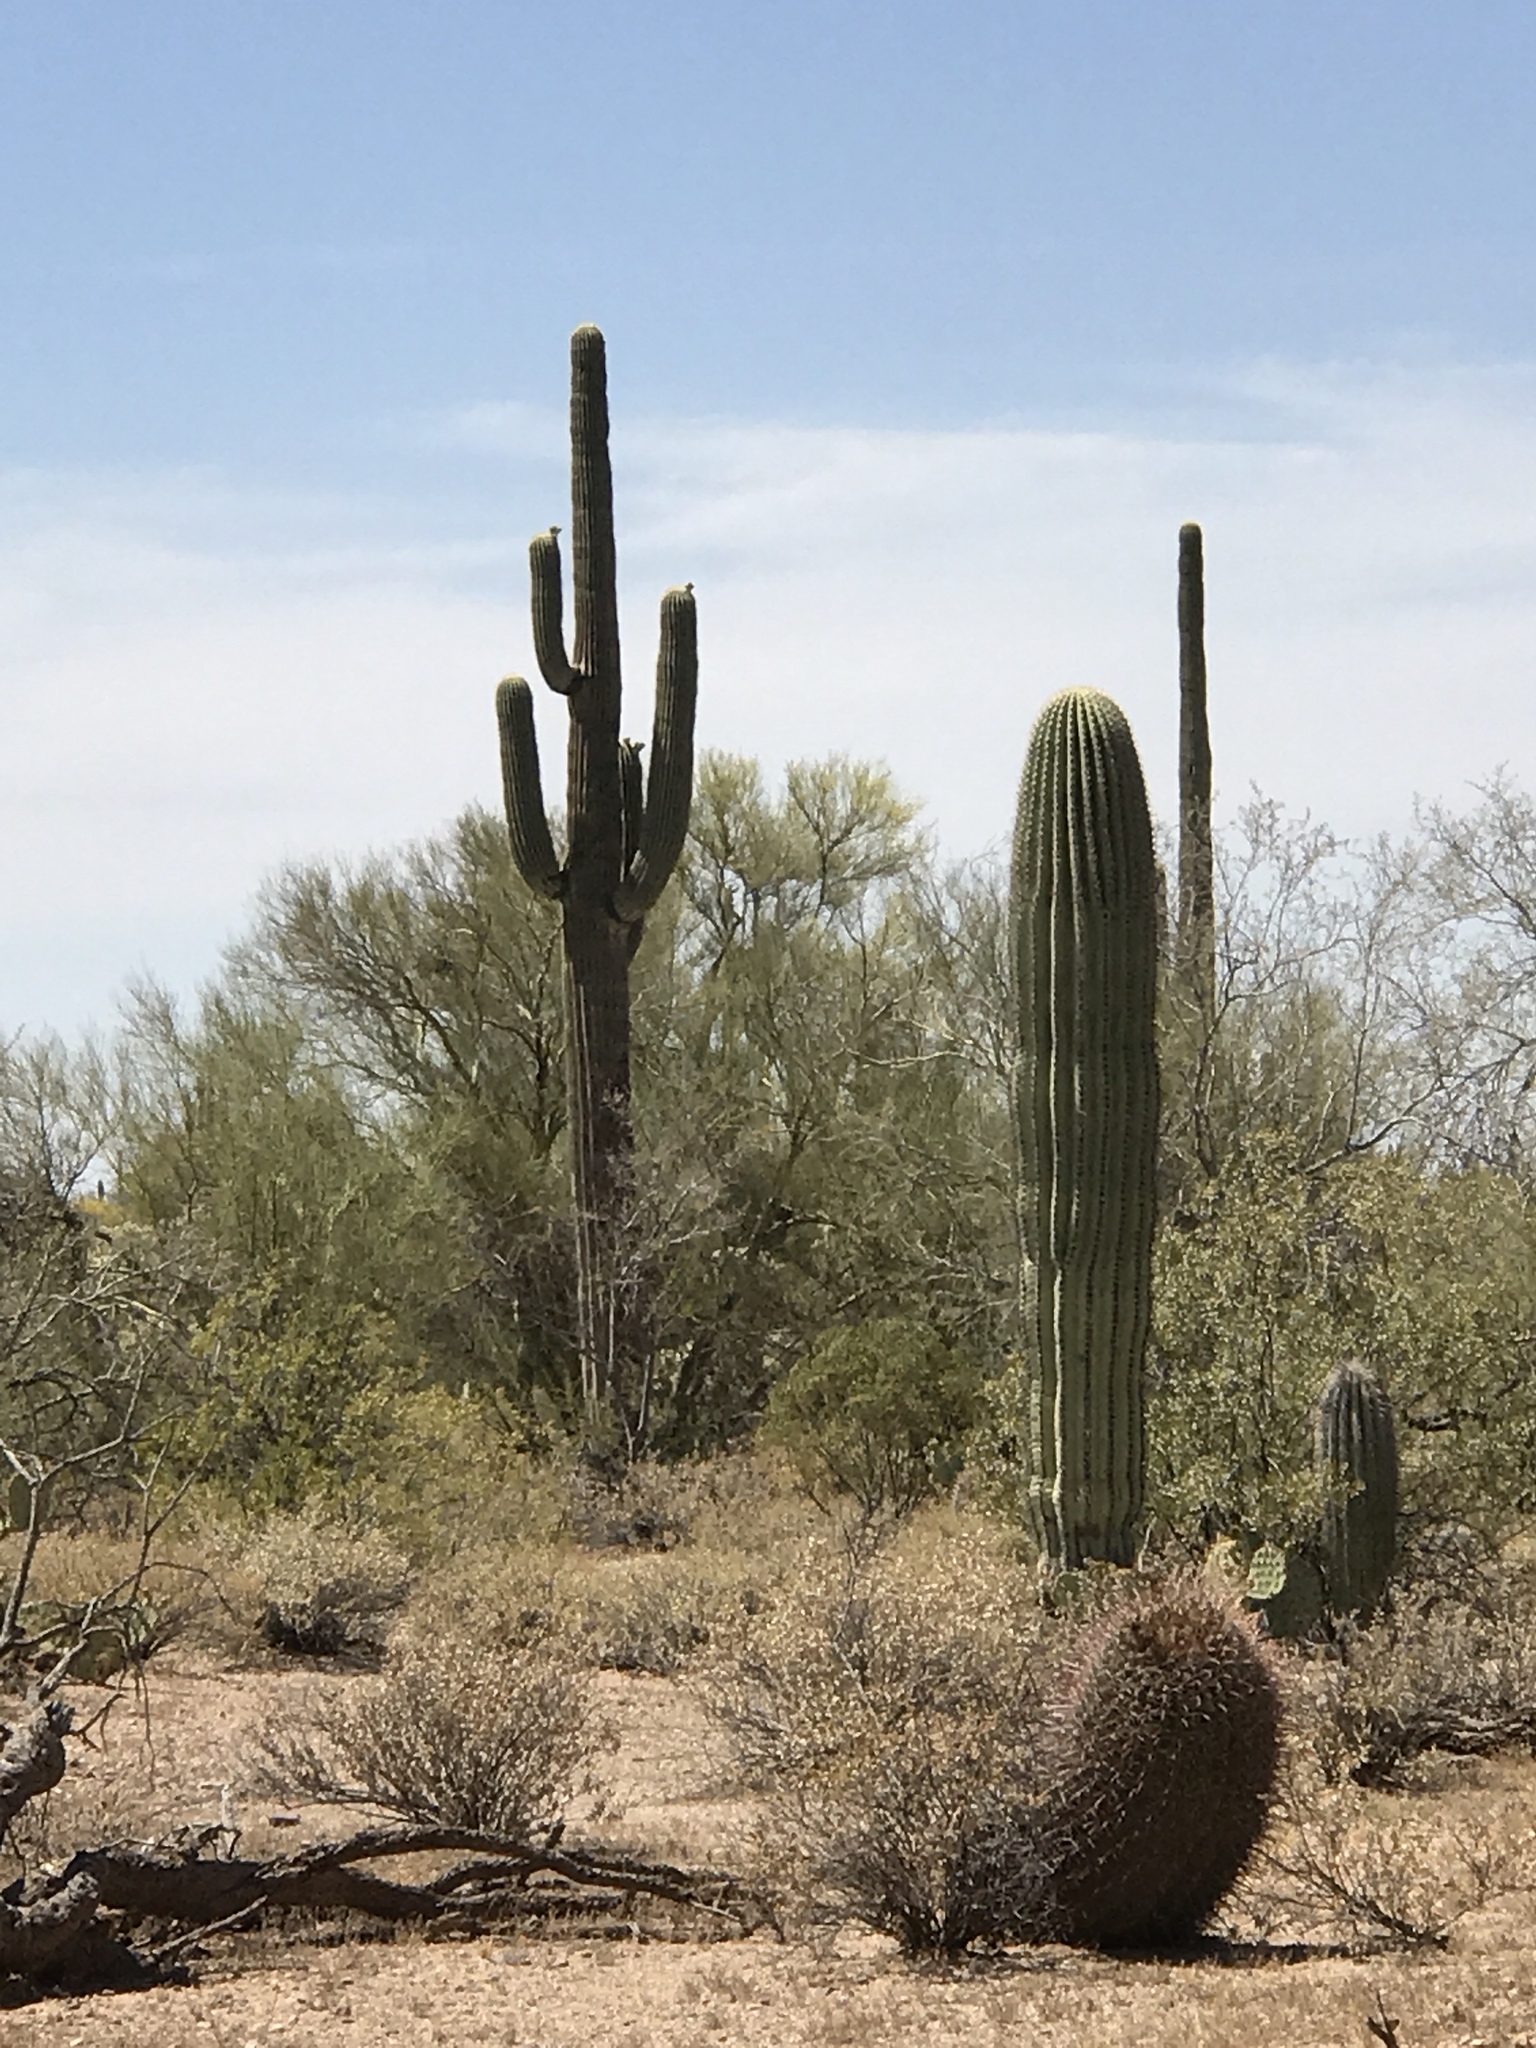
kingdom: Plantae
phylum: Tracheophyta
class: Magnoliopsida
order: Caryophyllales
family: Cactaceae
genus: Ferocactus
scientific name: Ferocactus wislizeni
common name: Candy barrel cactus
